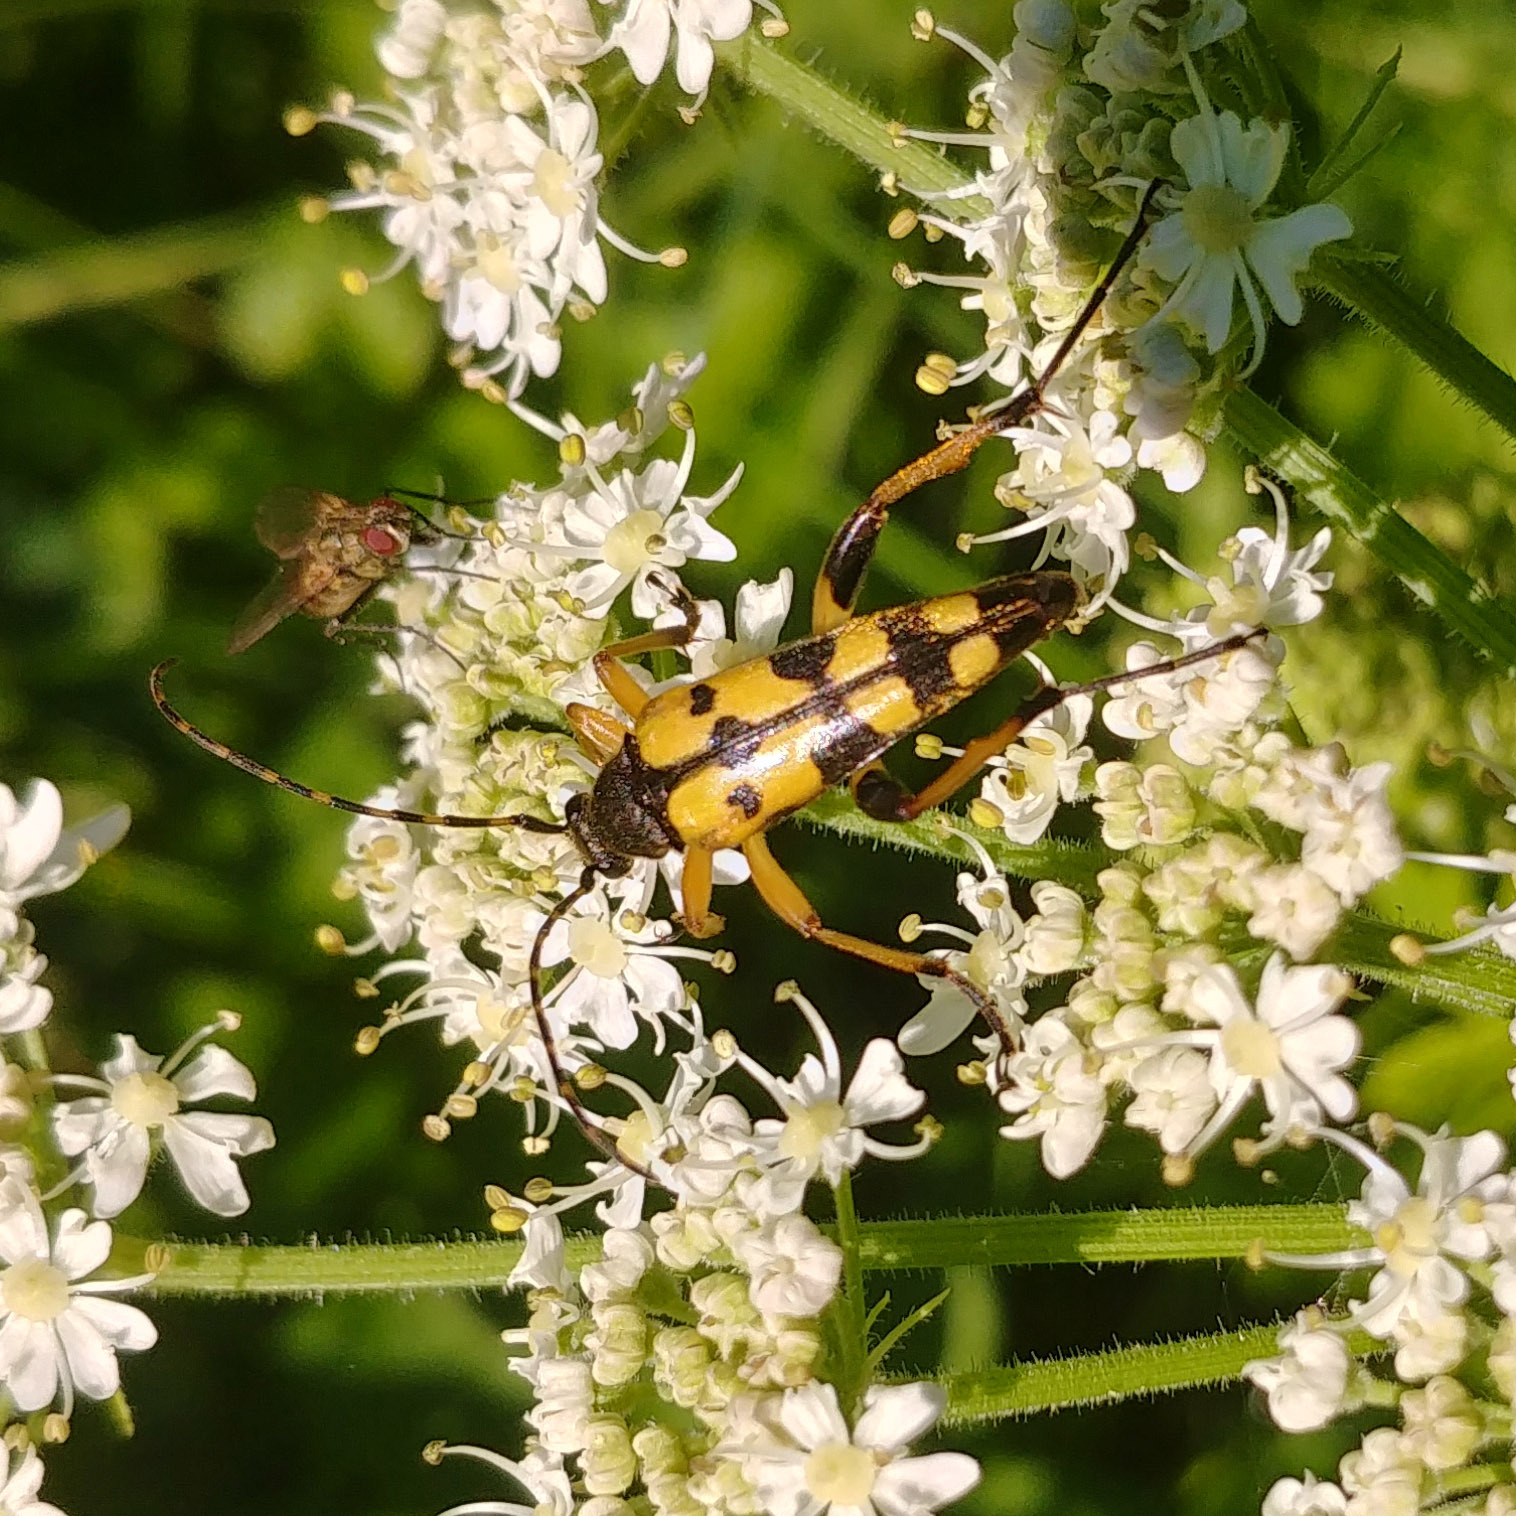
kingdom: Animalia
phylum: Arthropoda
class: Insecta
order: Coleoptera
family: Cerambycidae
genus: Rutpela
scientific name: Rutpela maculata
